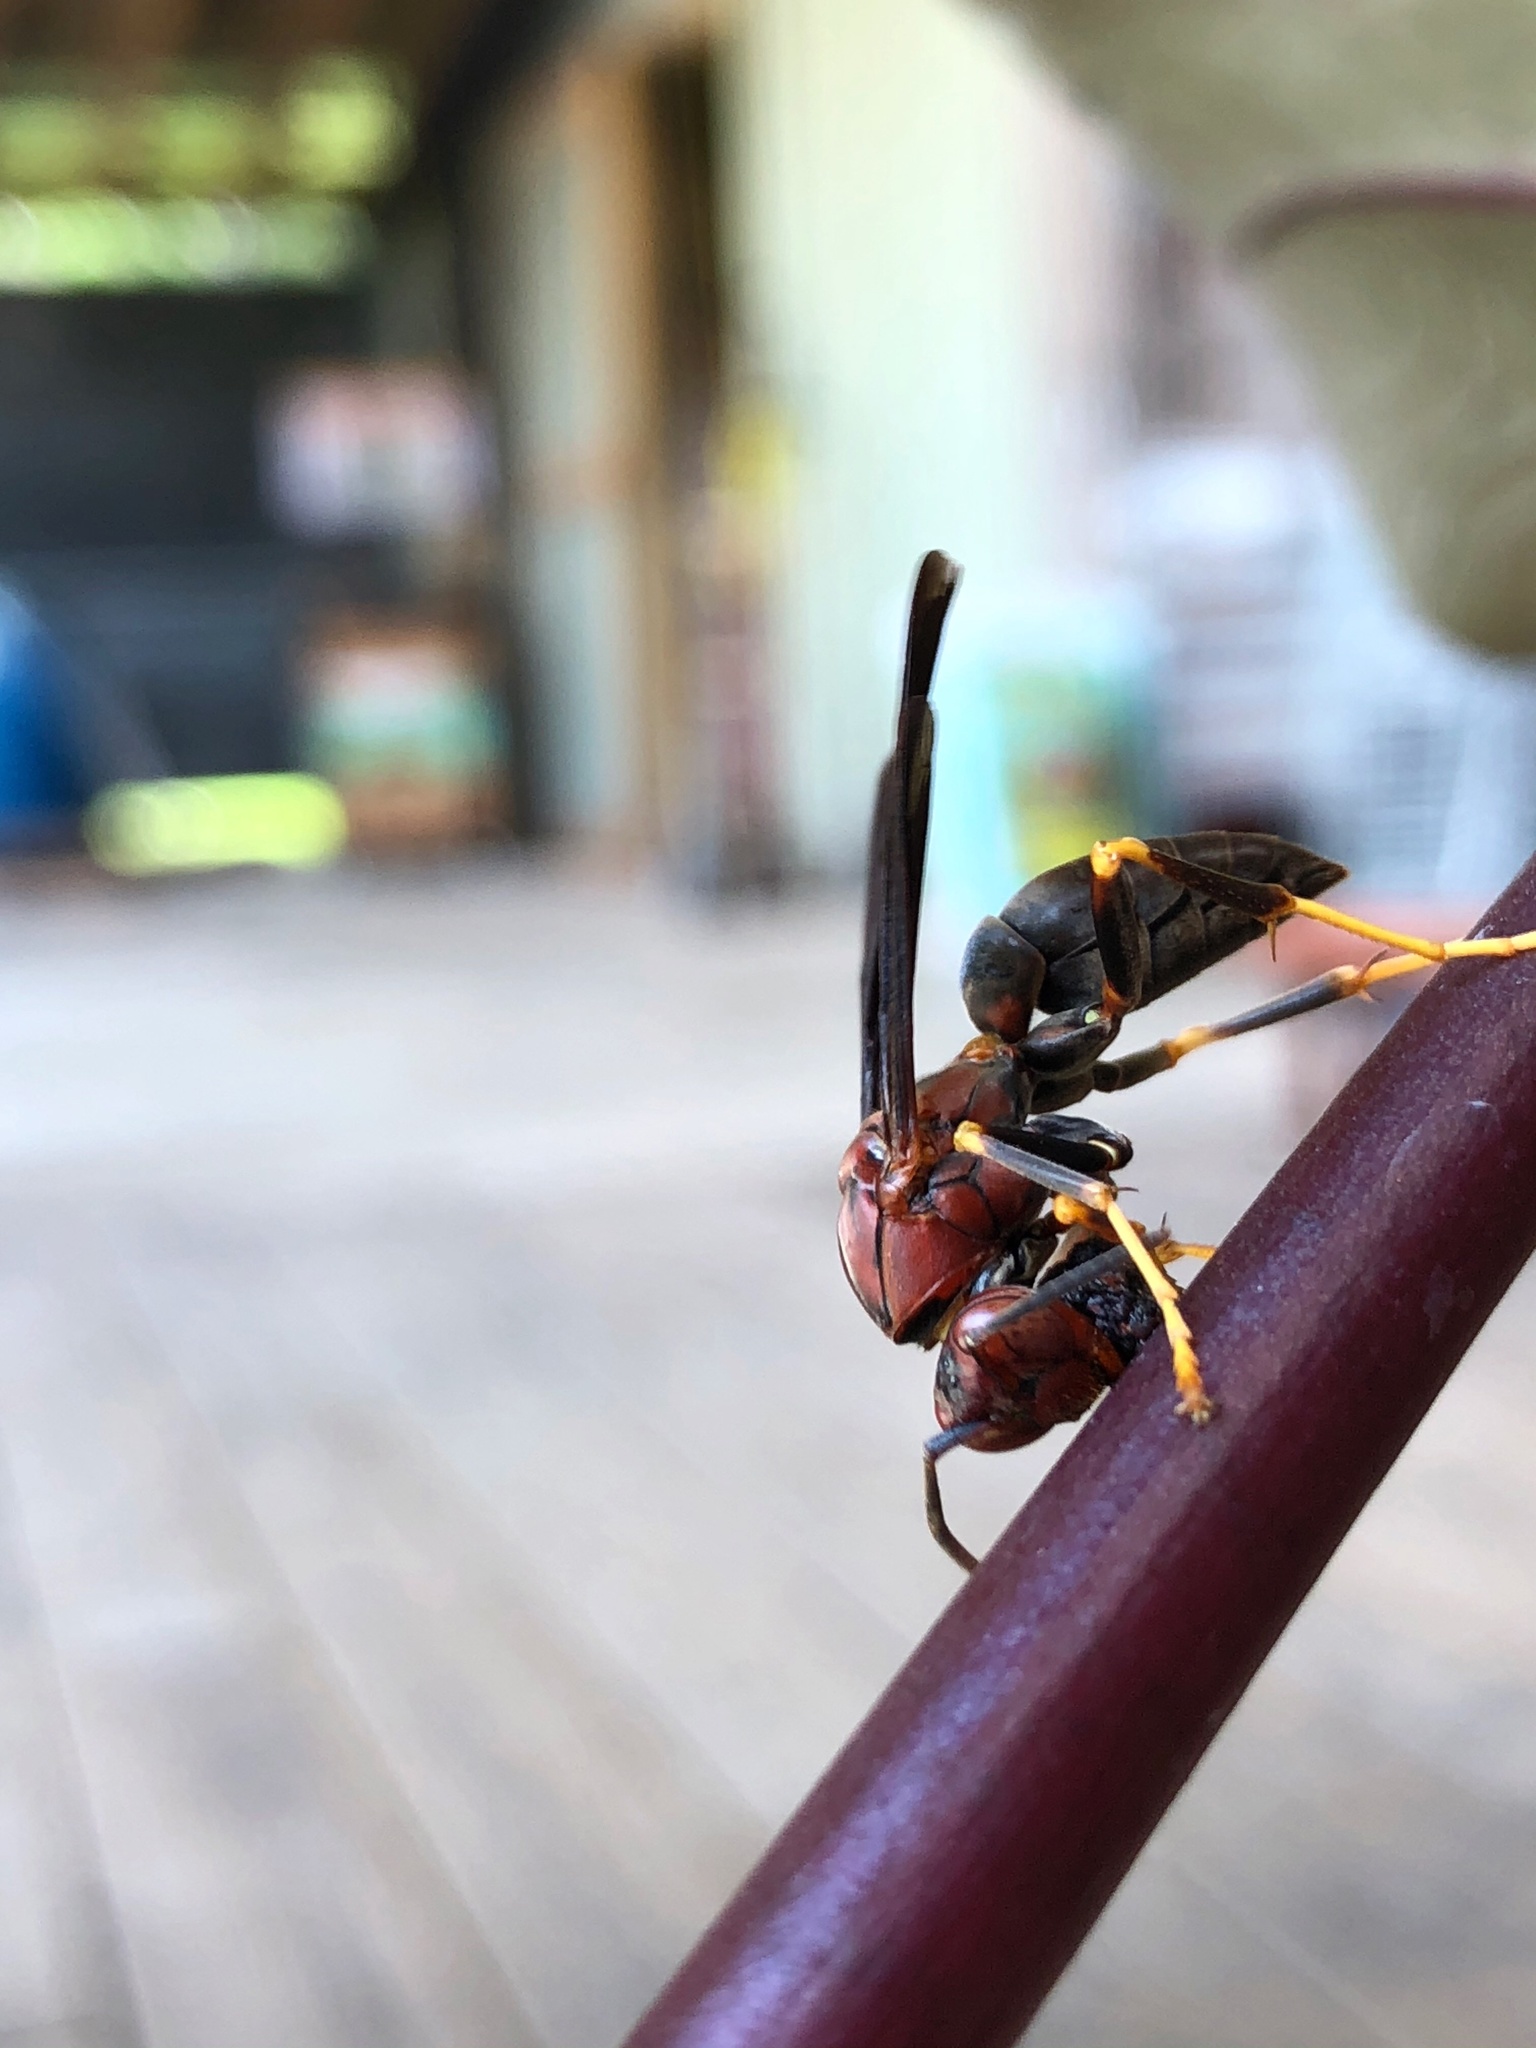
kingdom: Animalia
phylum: Arthropoda
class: Insecta
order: Hymenoptera
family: Eumenidae
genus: Polistes
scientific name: Polistes metricus
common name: Metric paper wasp
